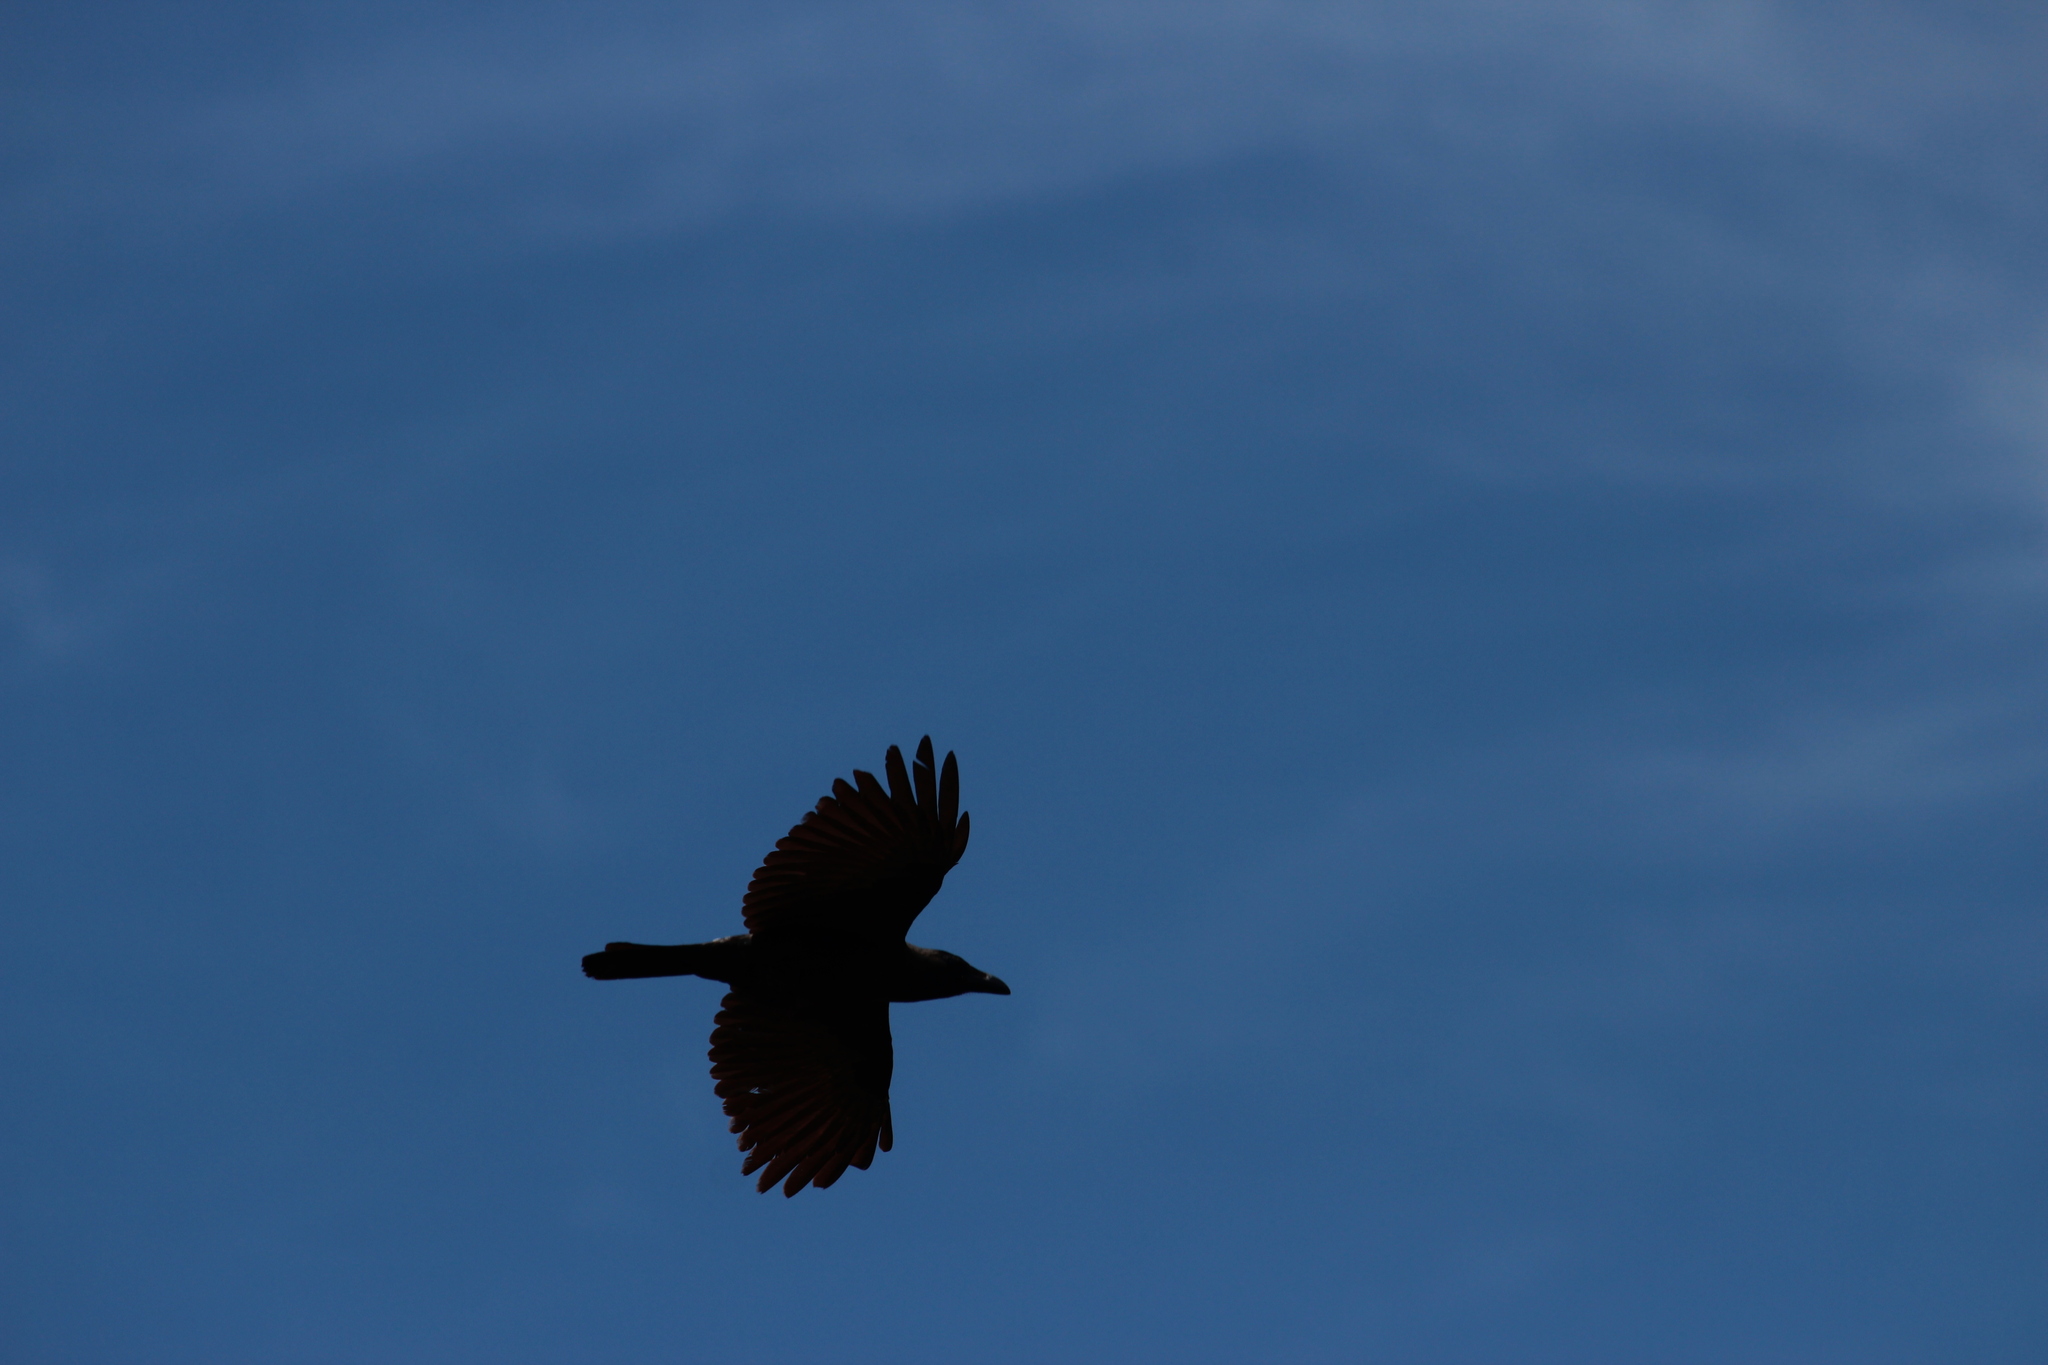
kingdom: Animalia
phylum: Chordata
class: Aves
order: Passeriformes
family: Corvidae
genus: Corvus
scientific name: Corvus splendens
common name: House crow
